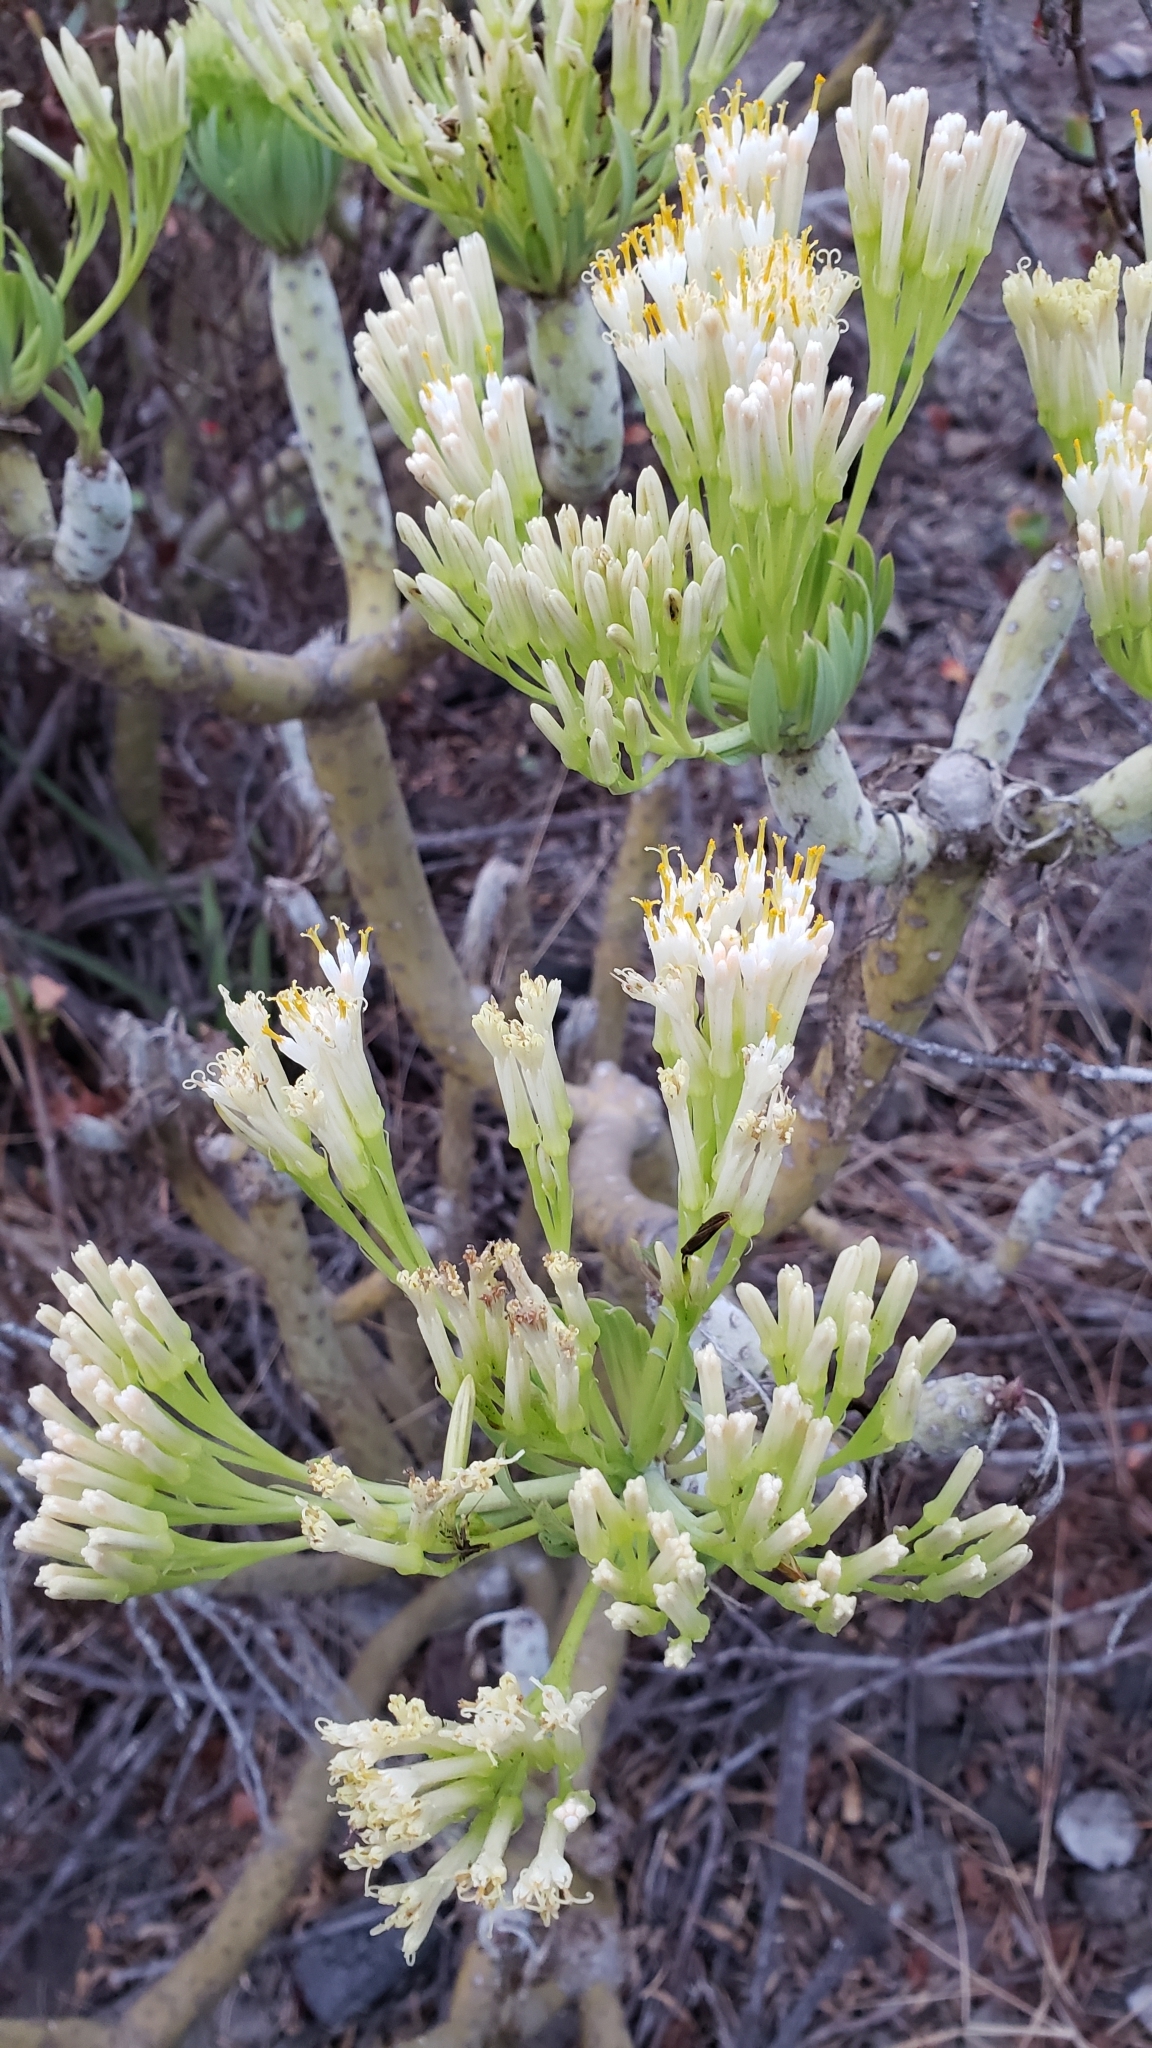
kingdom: Plantae
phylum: Tracheophyta
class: Magnoliopsida
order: Asterales
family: Asteraceae
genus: Kleinia
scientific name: Kleinia neriifolia
